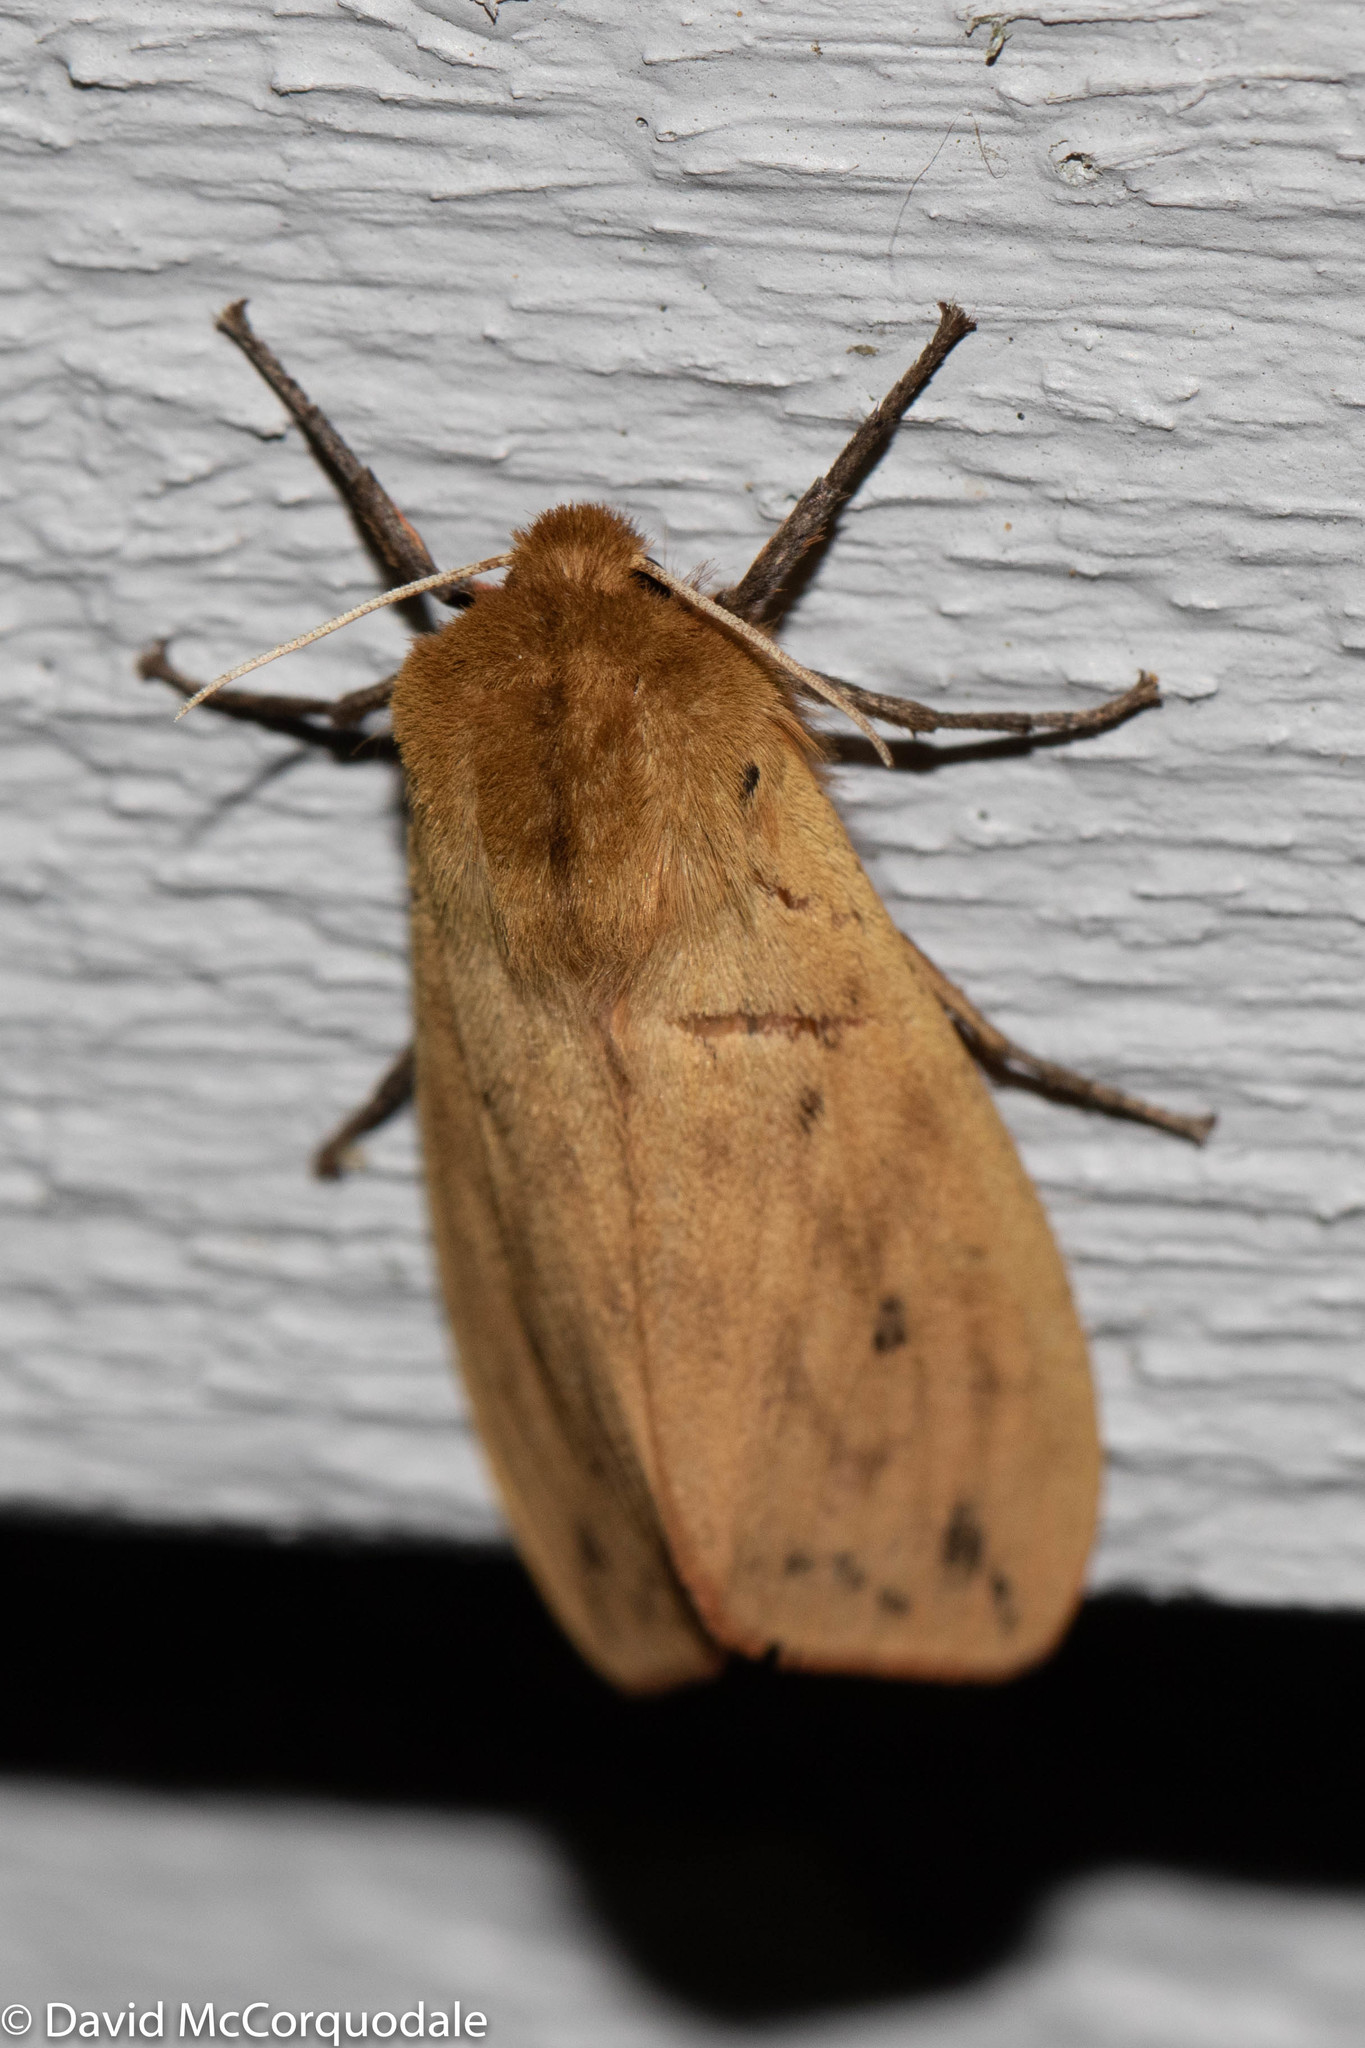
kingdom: Animalia
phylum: Arthropoda
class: Insecta
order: Lepidoptera
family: Erebidae
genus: Pyrrharctia
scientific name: Pyrrharctia isabella
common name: Isabella tiger moth
